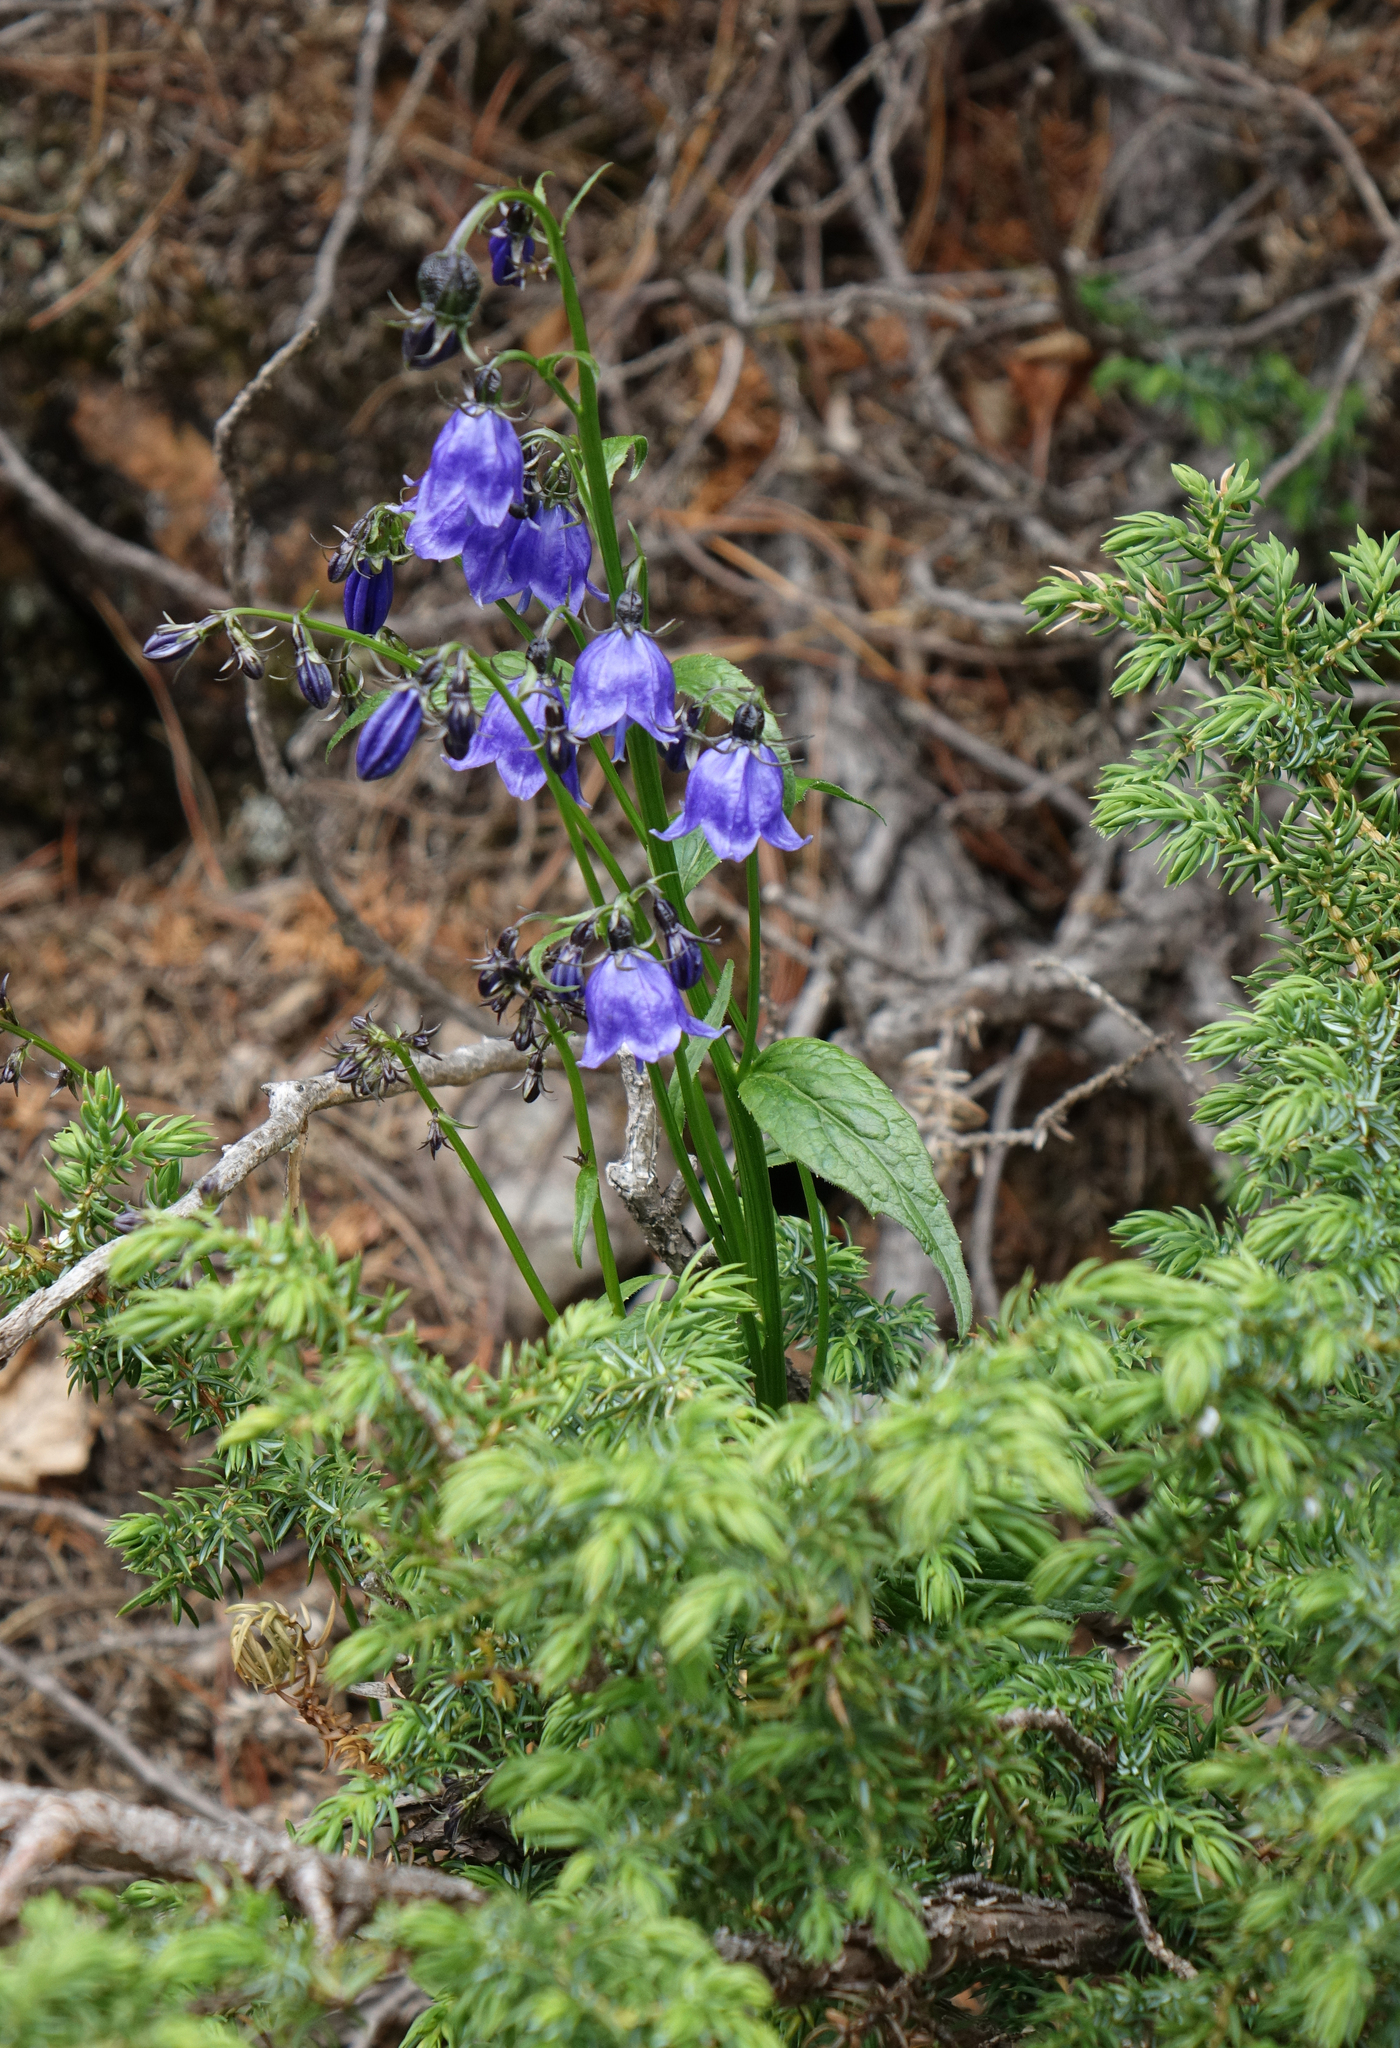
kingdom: Plantae
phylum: Tracheophyta
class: Pinopsida
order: Pinales
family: Cupressaceae
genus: Juniperus
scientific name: Juniperus communis
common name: Common juniper
